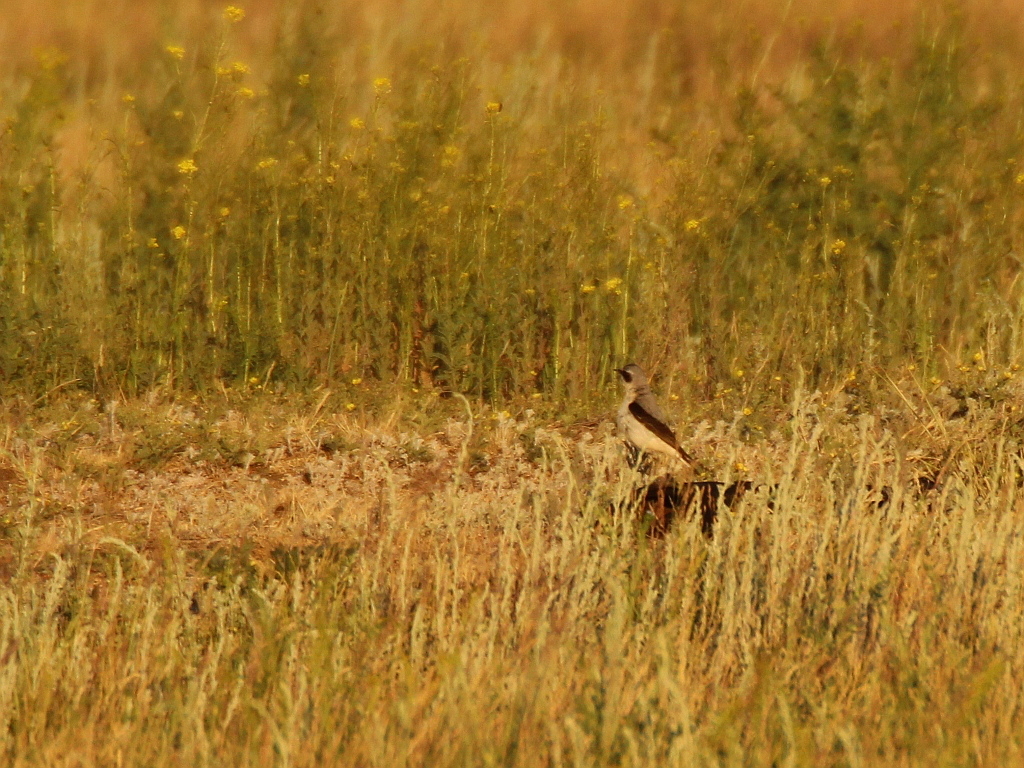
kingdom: Animalia
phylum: Chordata
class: Aves
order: Passeriformes
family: Muscicapidae
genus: Oenanthe
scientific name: Oenanthe oenanthe
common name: Northern wheatear
